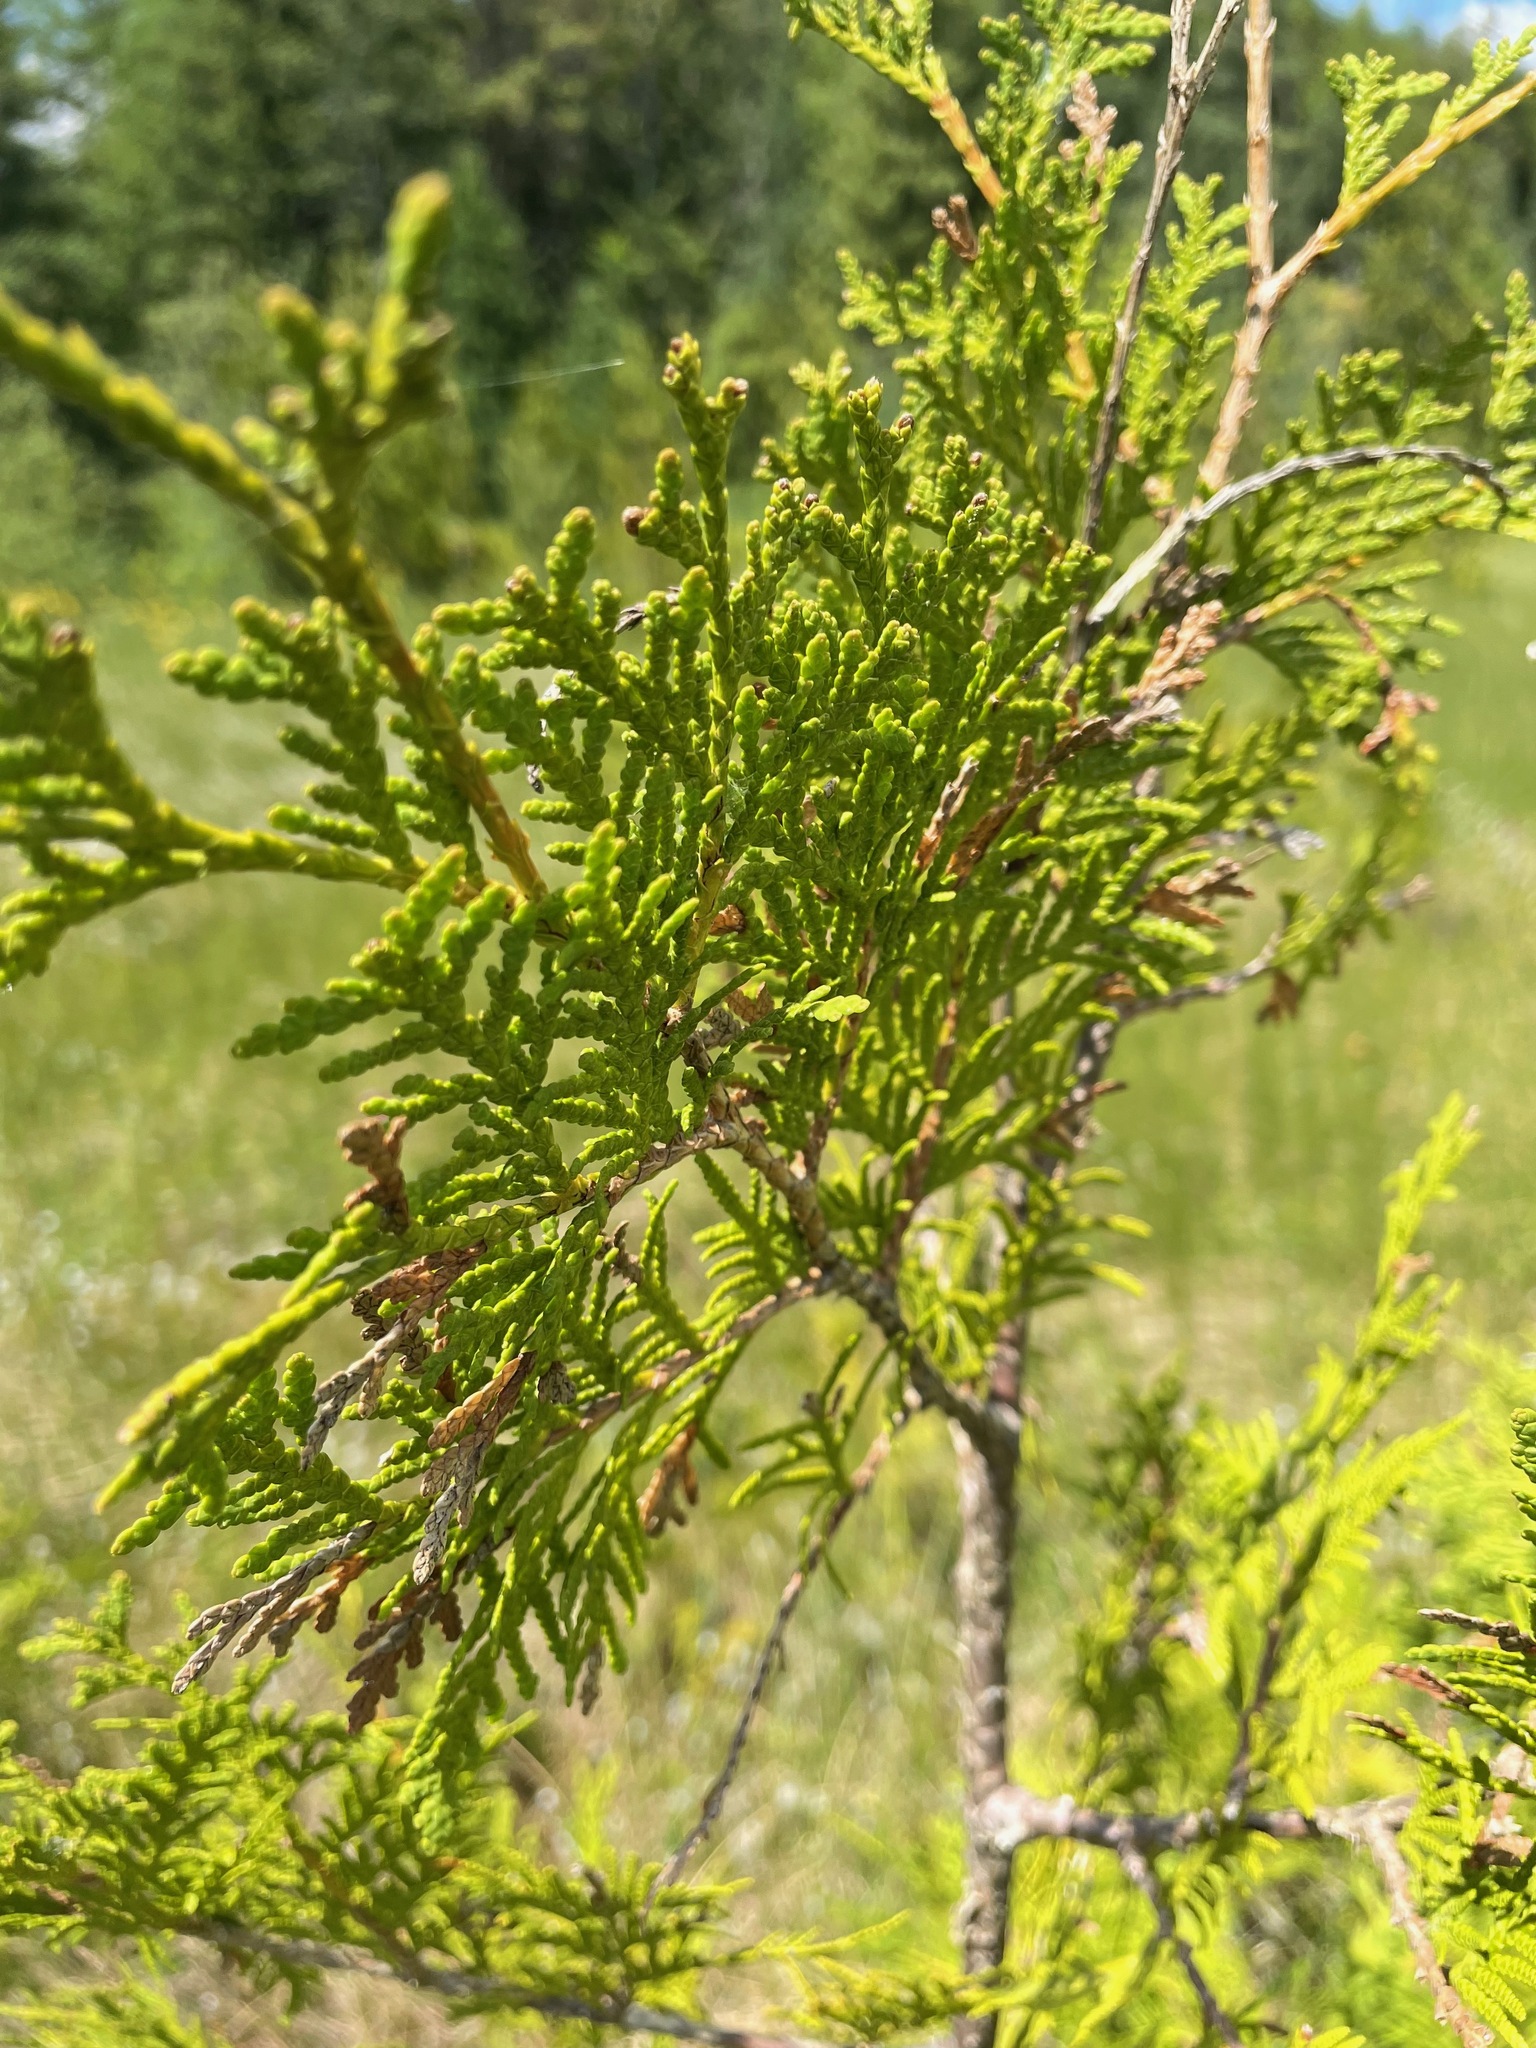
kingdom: Plantae
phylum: Tracheophyta
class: Pinopsida
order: Pinales
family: Cupressaceae
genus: Thuja
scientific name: Thuja occidentalis
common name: Northern white-cedar
